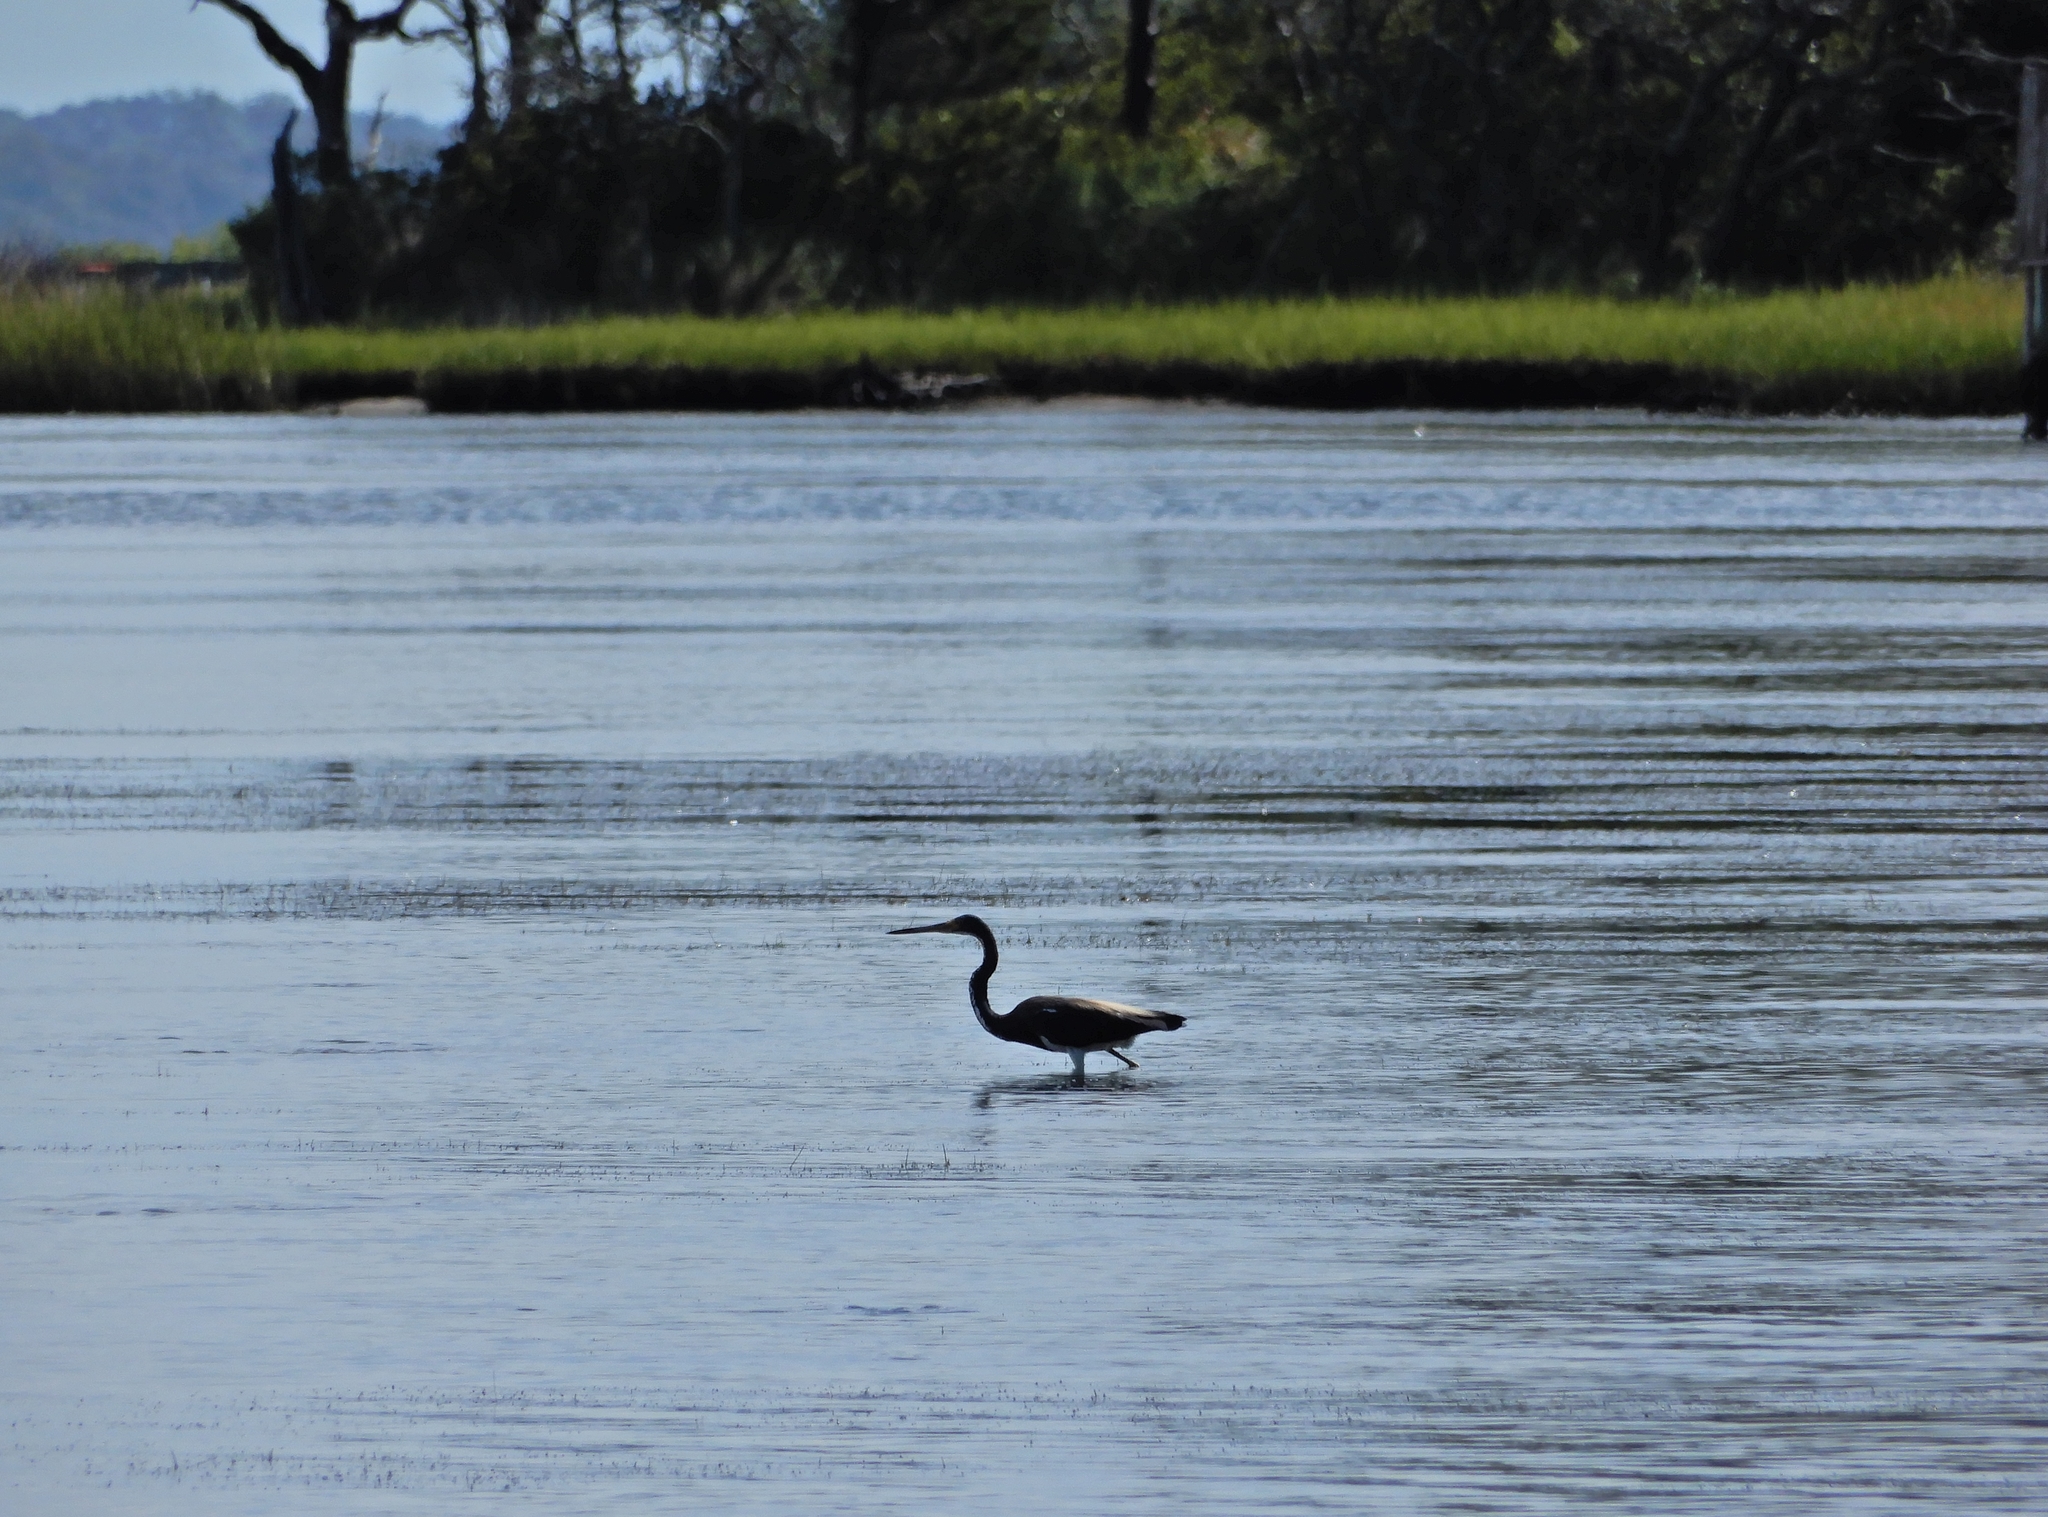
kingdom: Animalia
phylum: Chordata
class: Aves
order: Pelecaniformes
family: Ardeidae
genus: Egretta
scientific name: Egretta tricolor
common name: Tricolored heron
